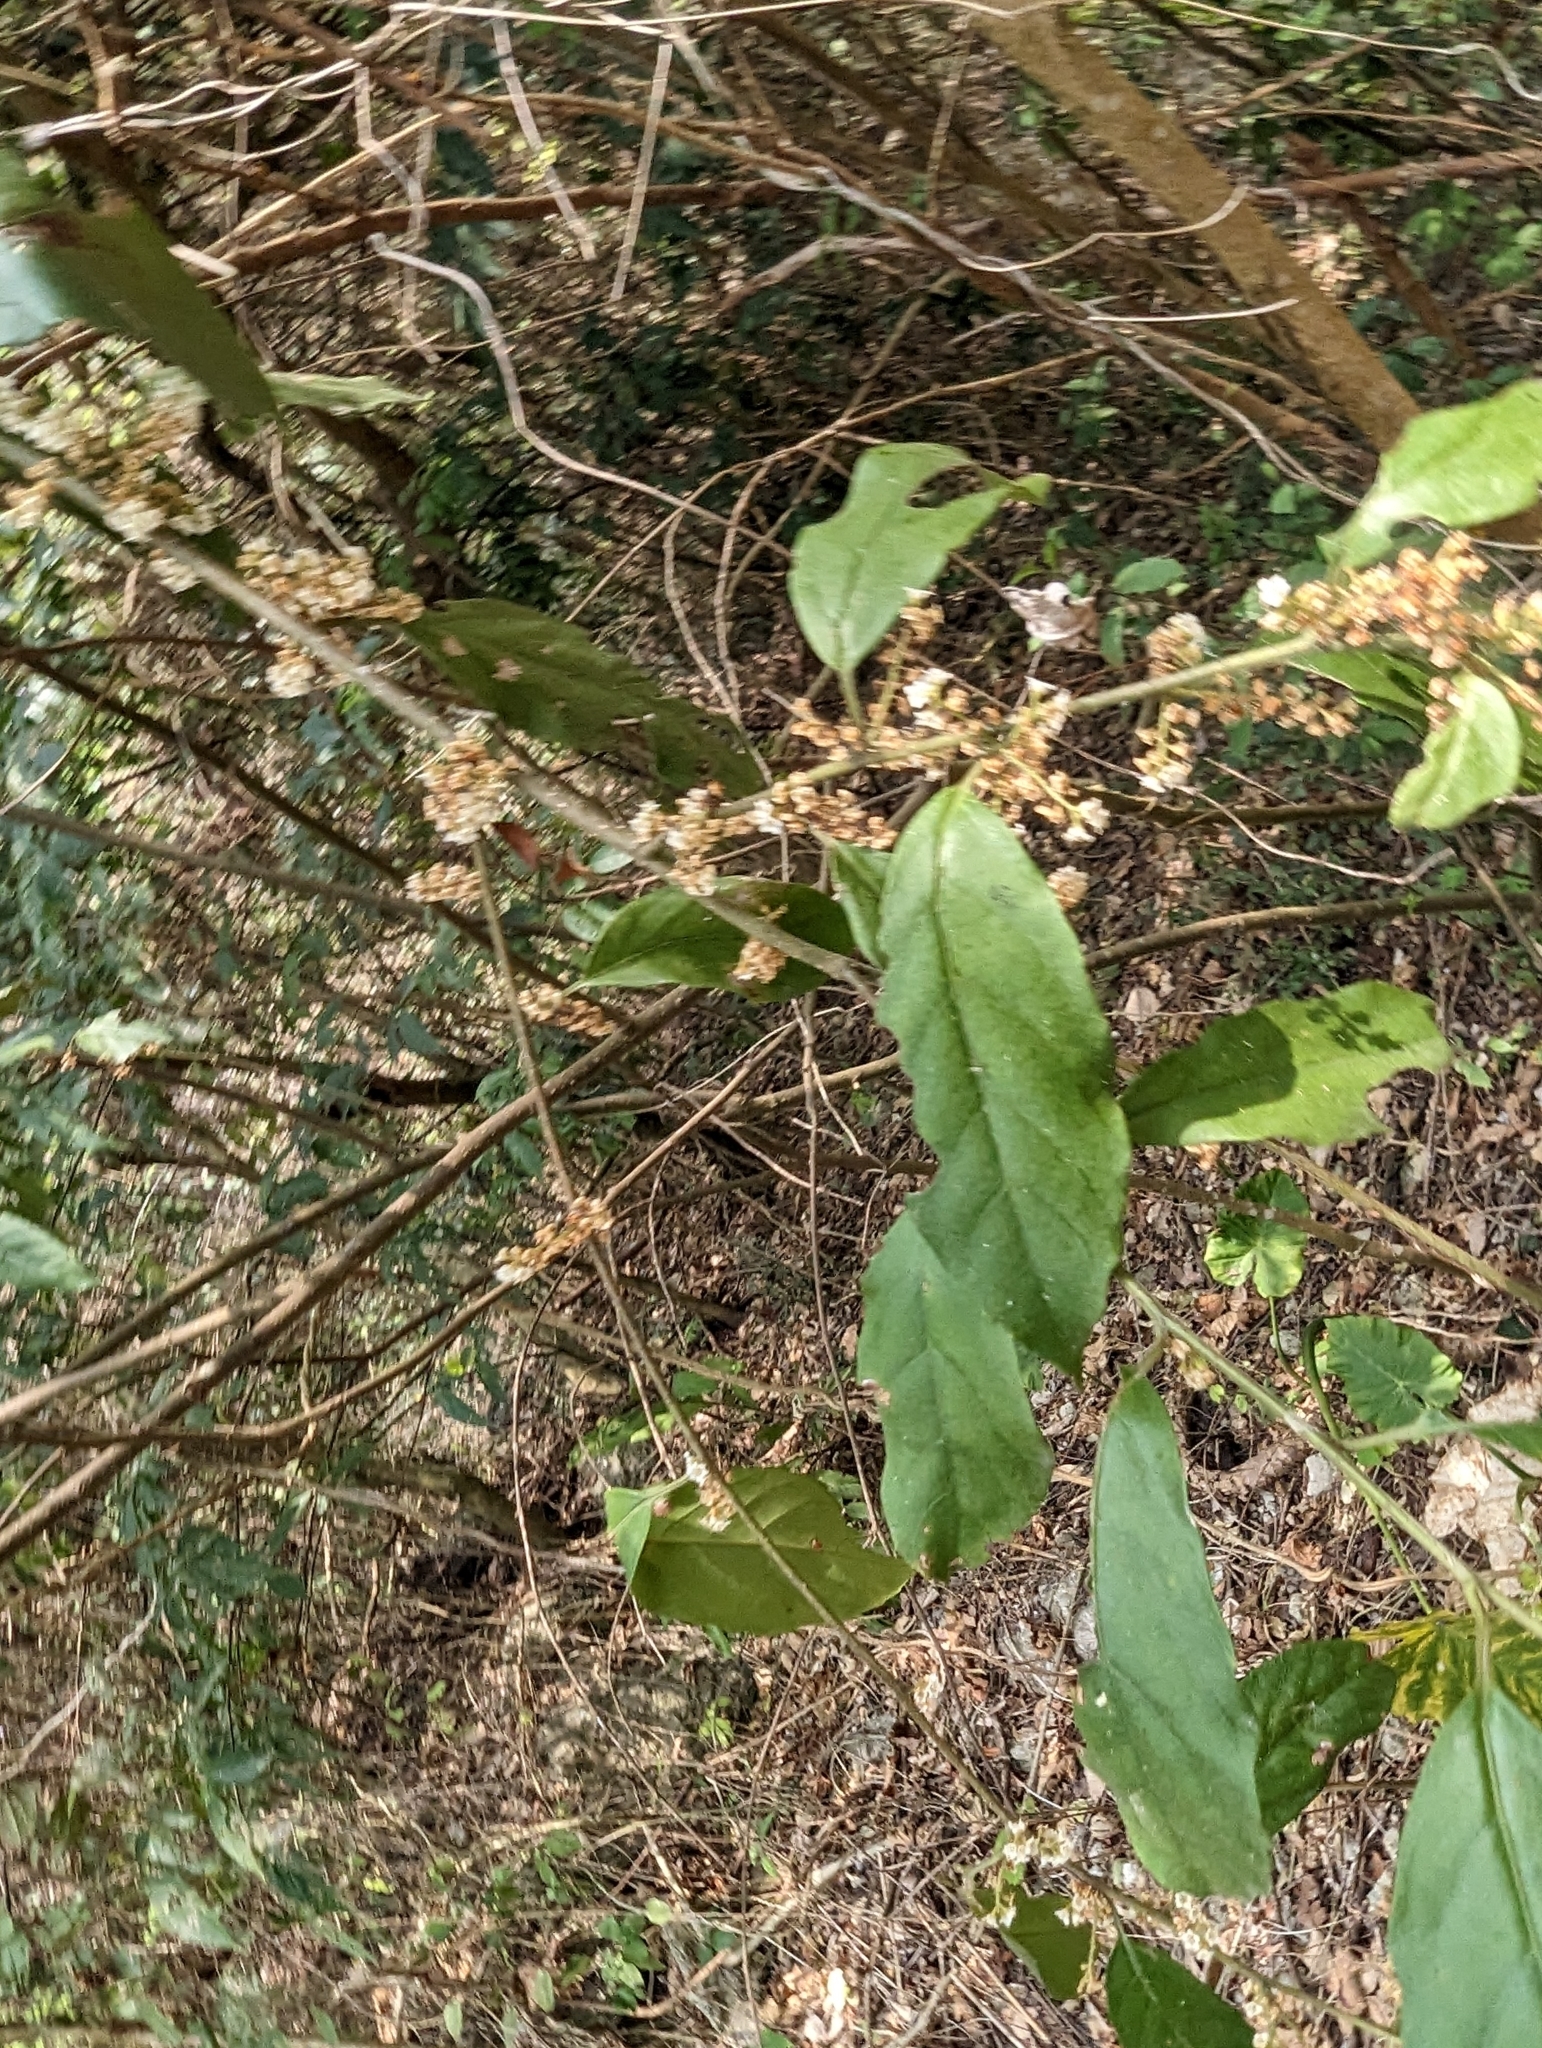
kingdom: Plantae
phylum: Tracheophyta
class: Magnoliopsida
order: Ericales
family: Primulaceae
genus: Maesa
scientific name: Maesa perlaria
